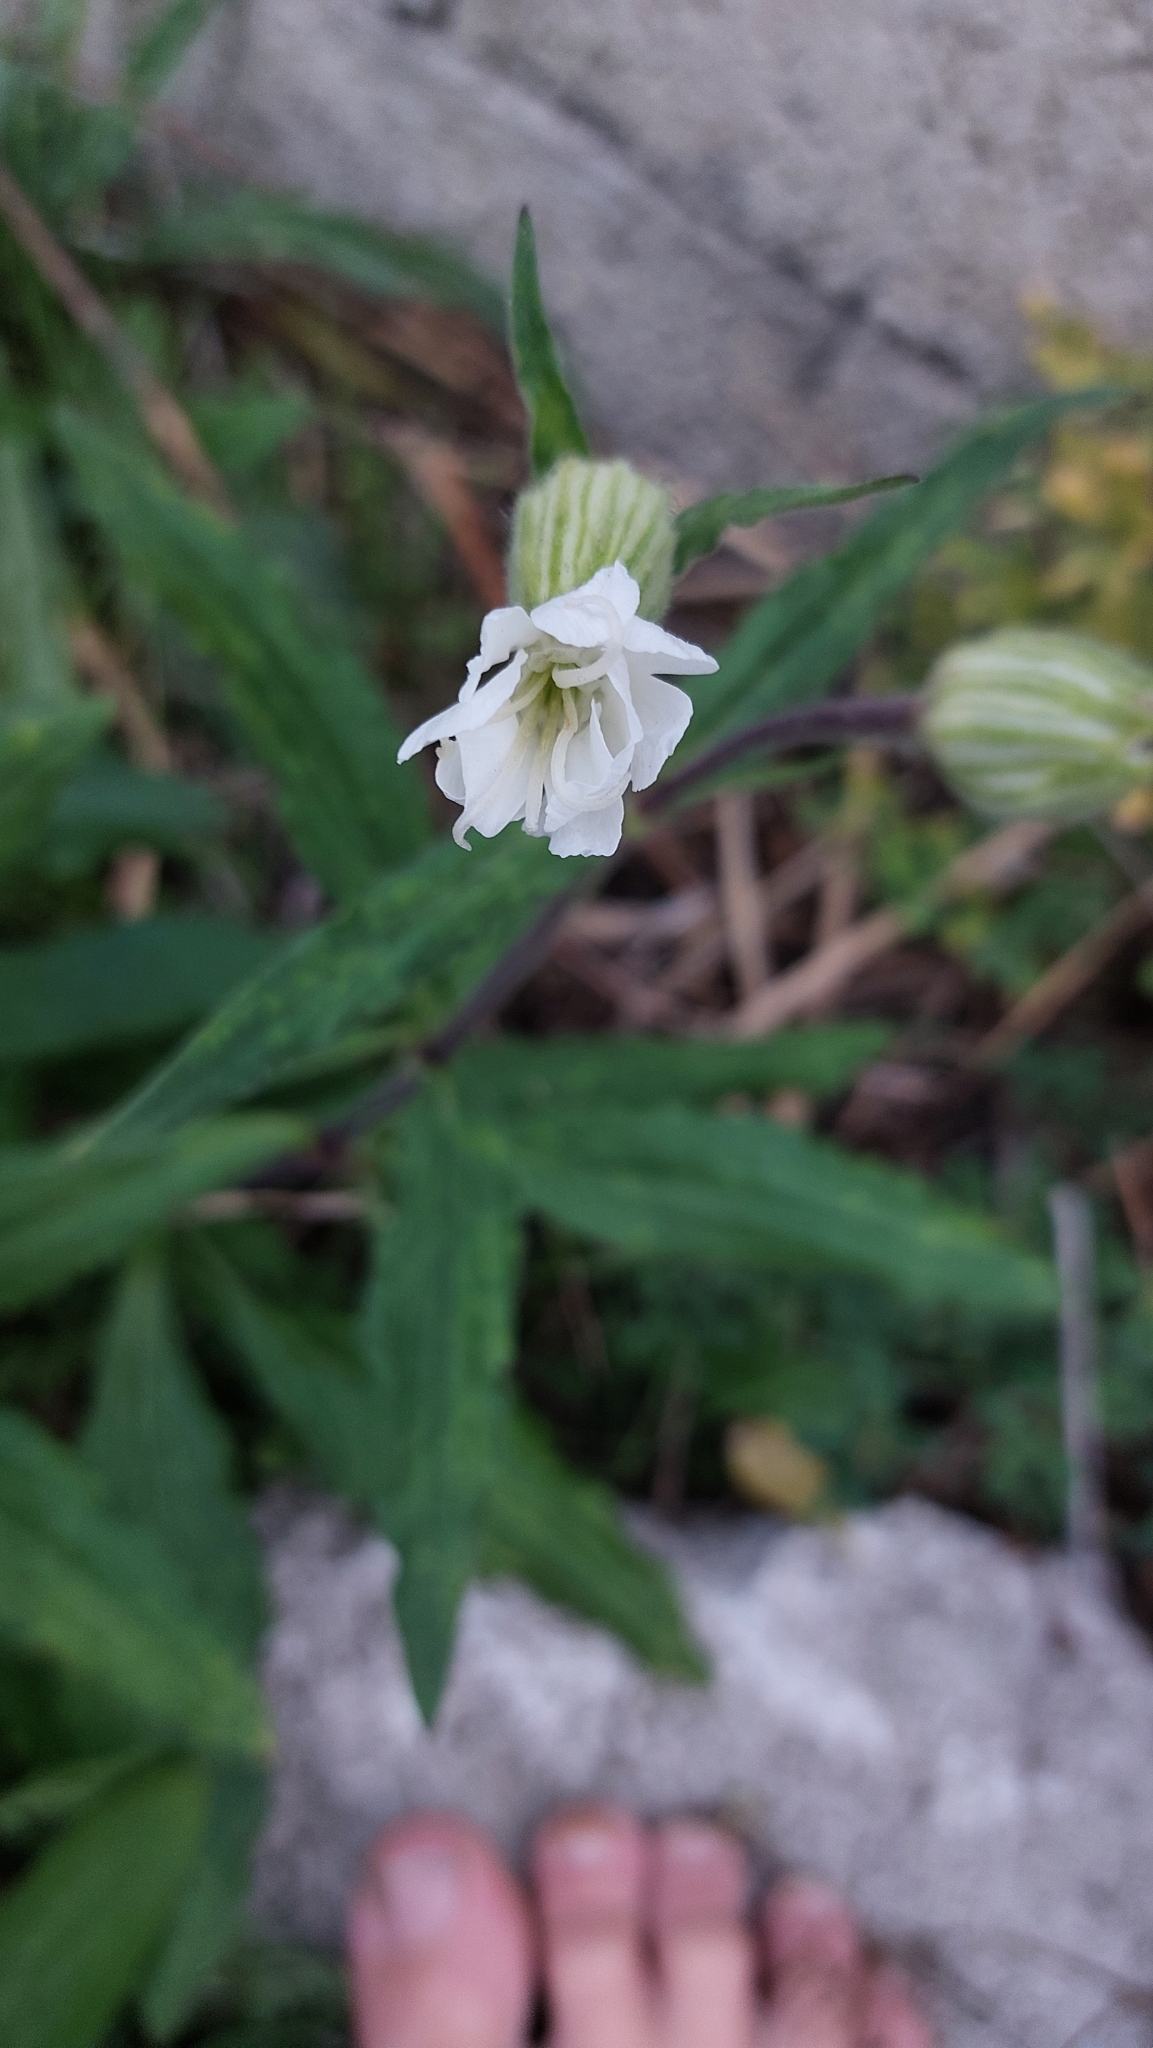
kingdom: Plantae
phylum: Tracheophyta
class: Magnoliopsida
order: Caryophyllales
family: Caryophyllaceae
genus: Silene
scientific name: Silene latifolia
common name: White campion
